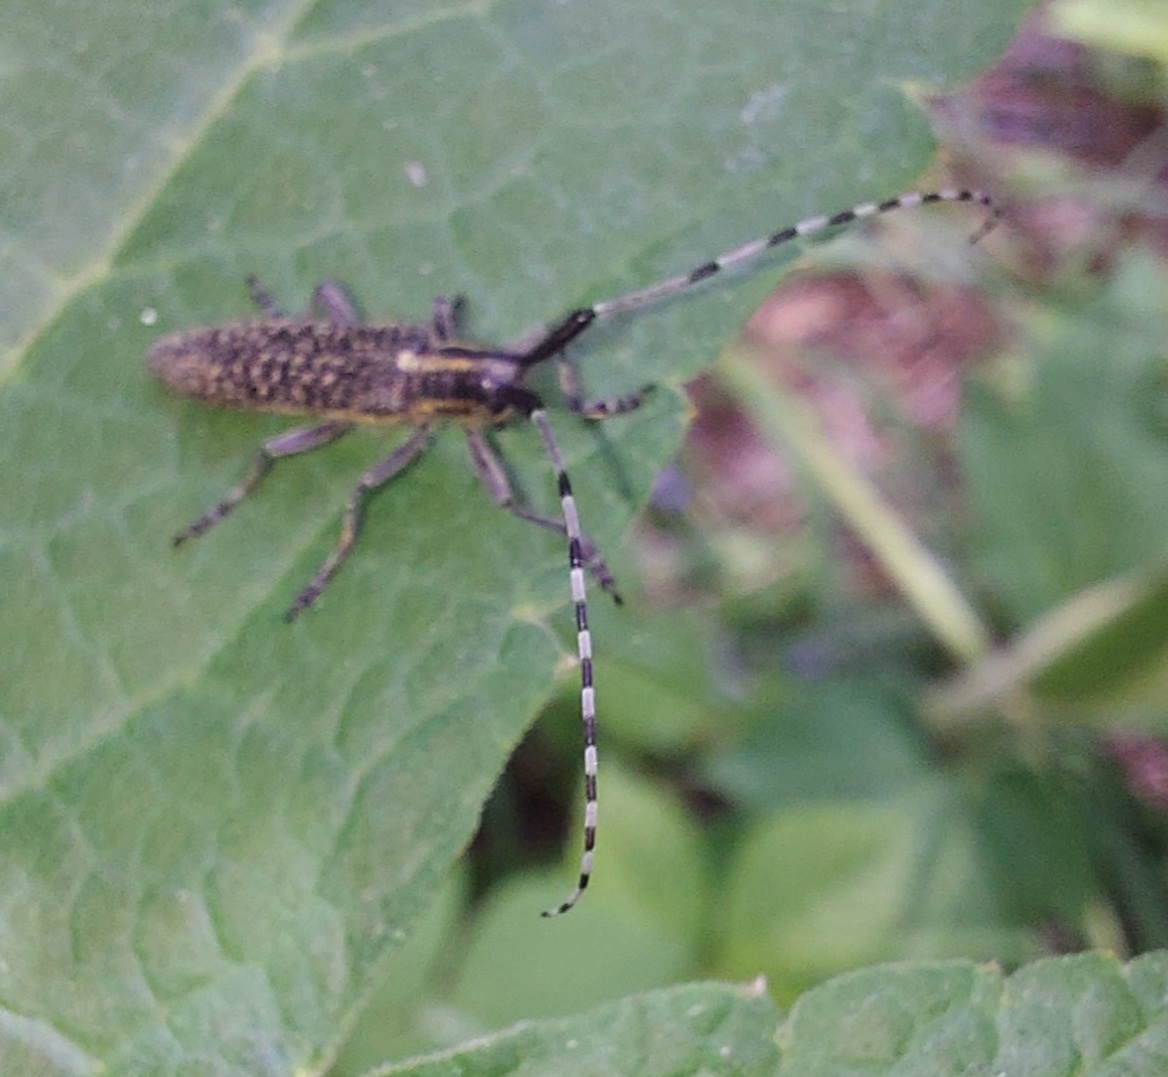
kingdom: Animalia
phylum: Arthropoda
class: Insecta
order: Coleoptera
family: Cerambycidae
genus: Agapanthia
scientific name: Agapanthia villosoviridescens
